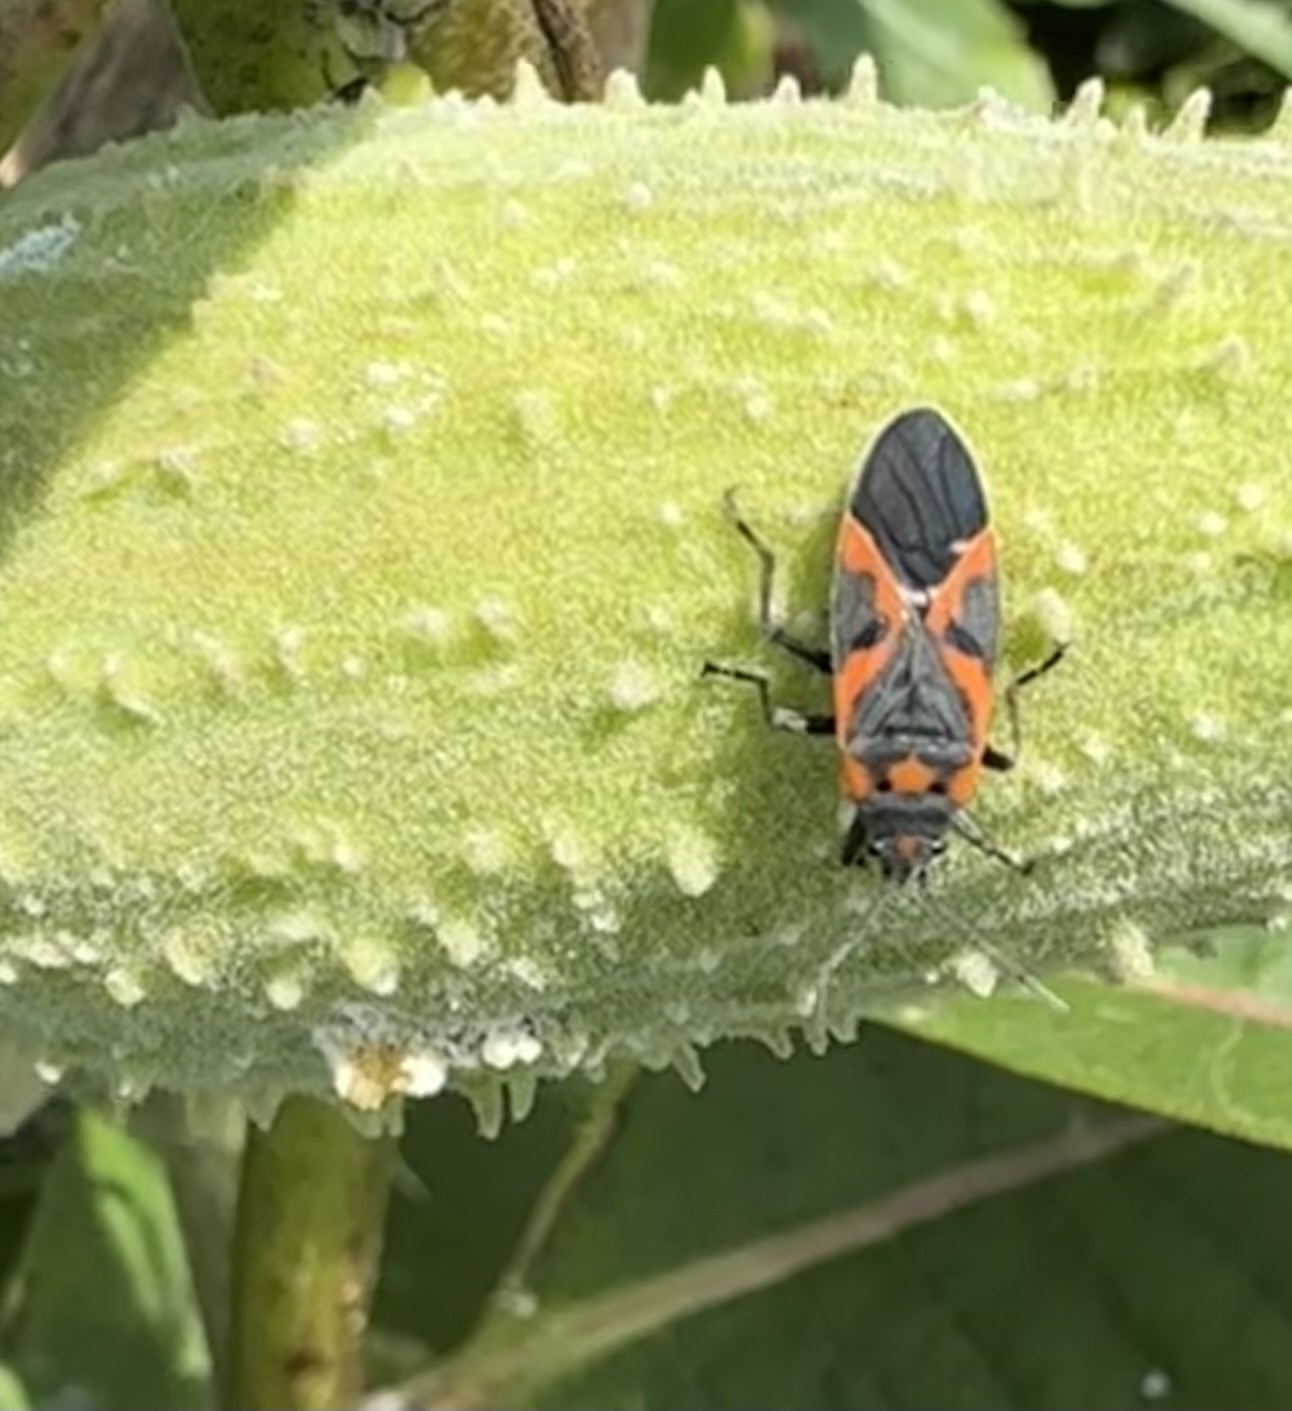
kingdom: Animalia
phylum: Arthropoda
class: Insecta
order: Hemiptera
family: Lygaeidae
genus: Lygaeus
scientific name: Lygaeus kalmii
